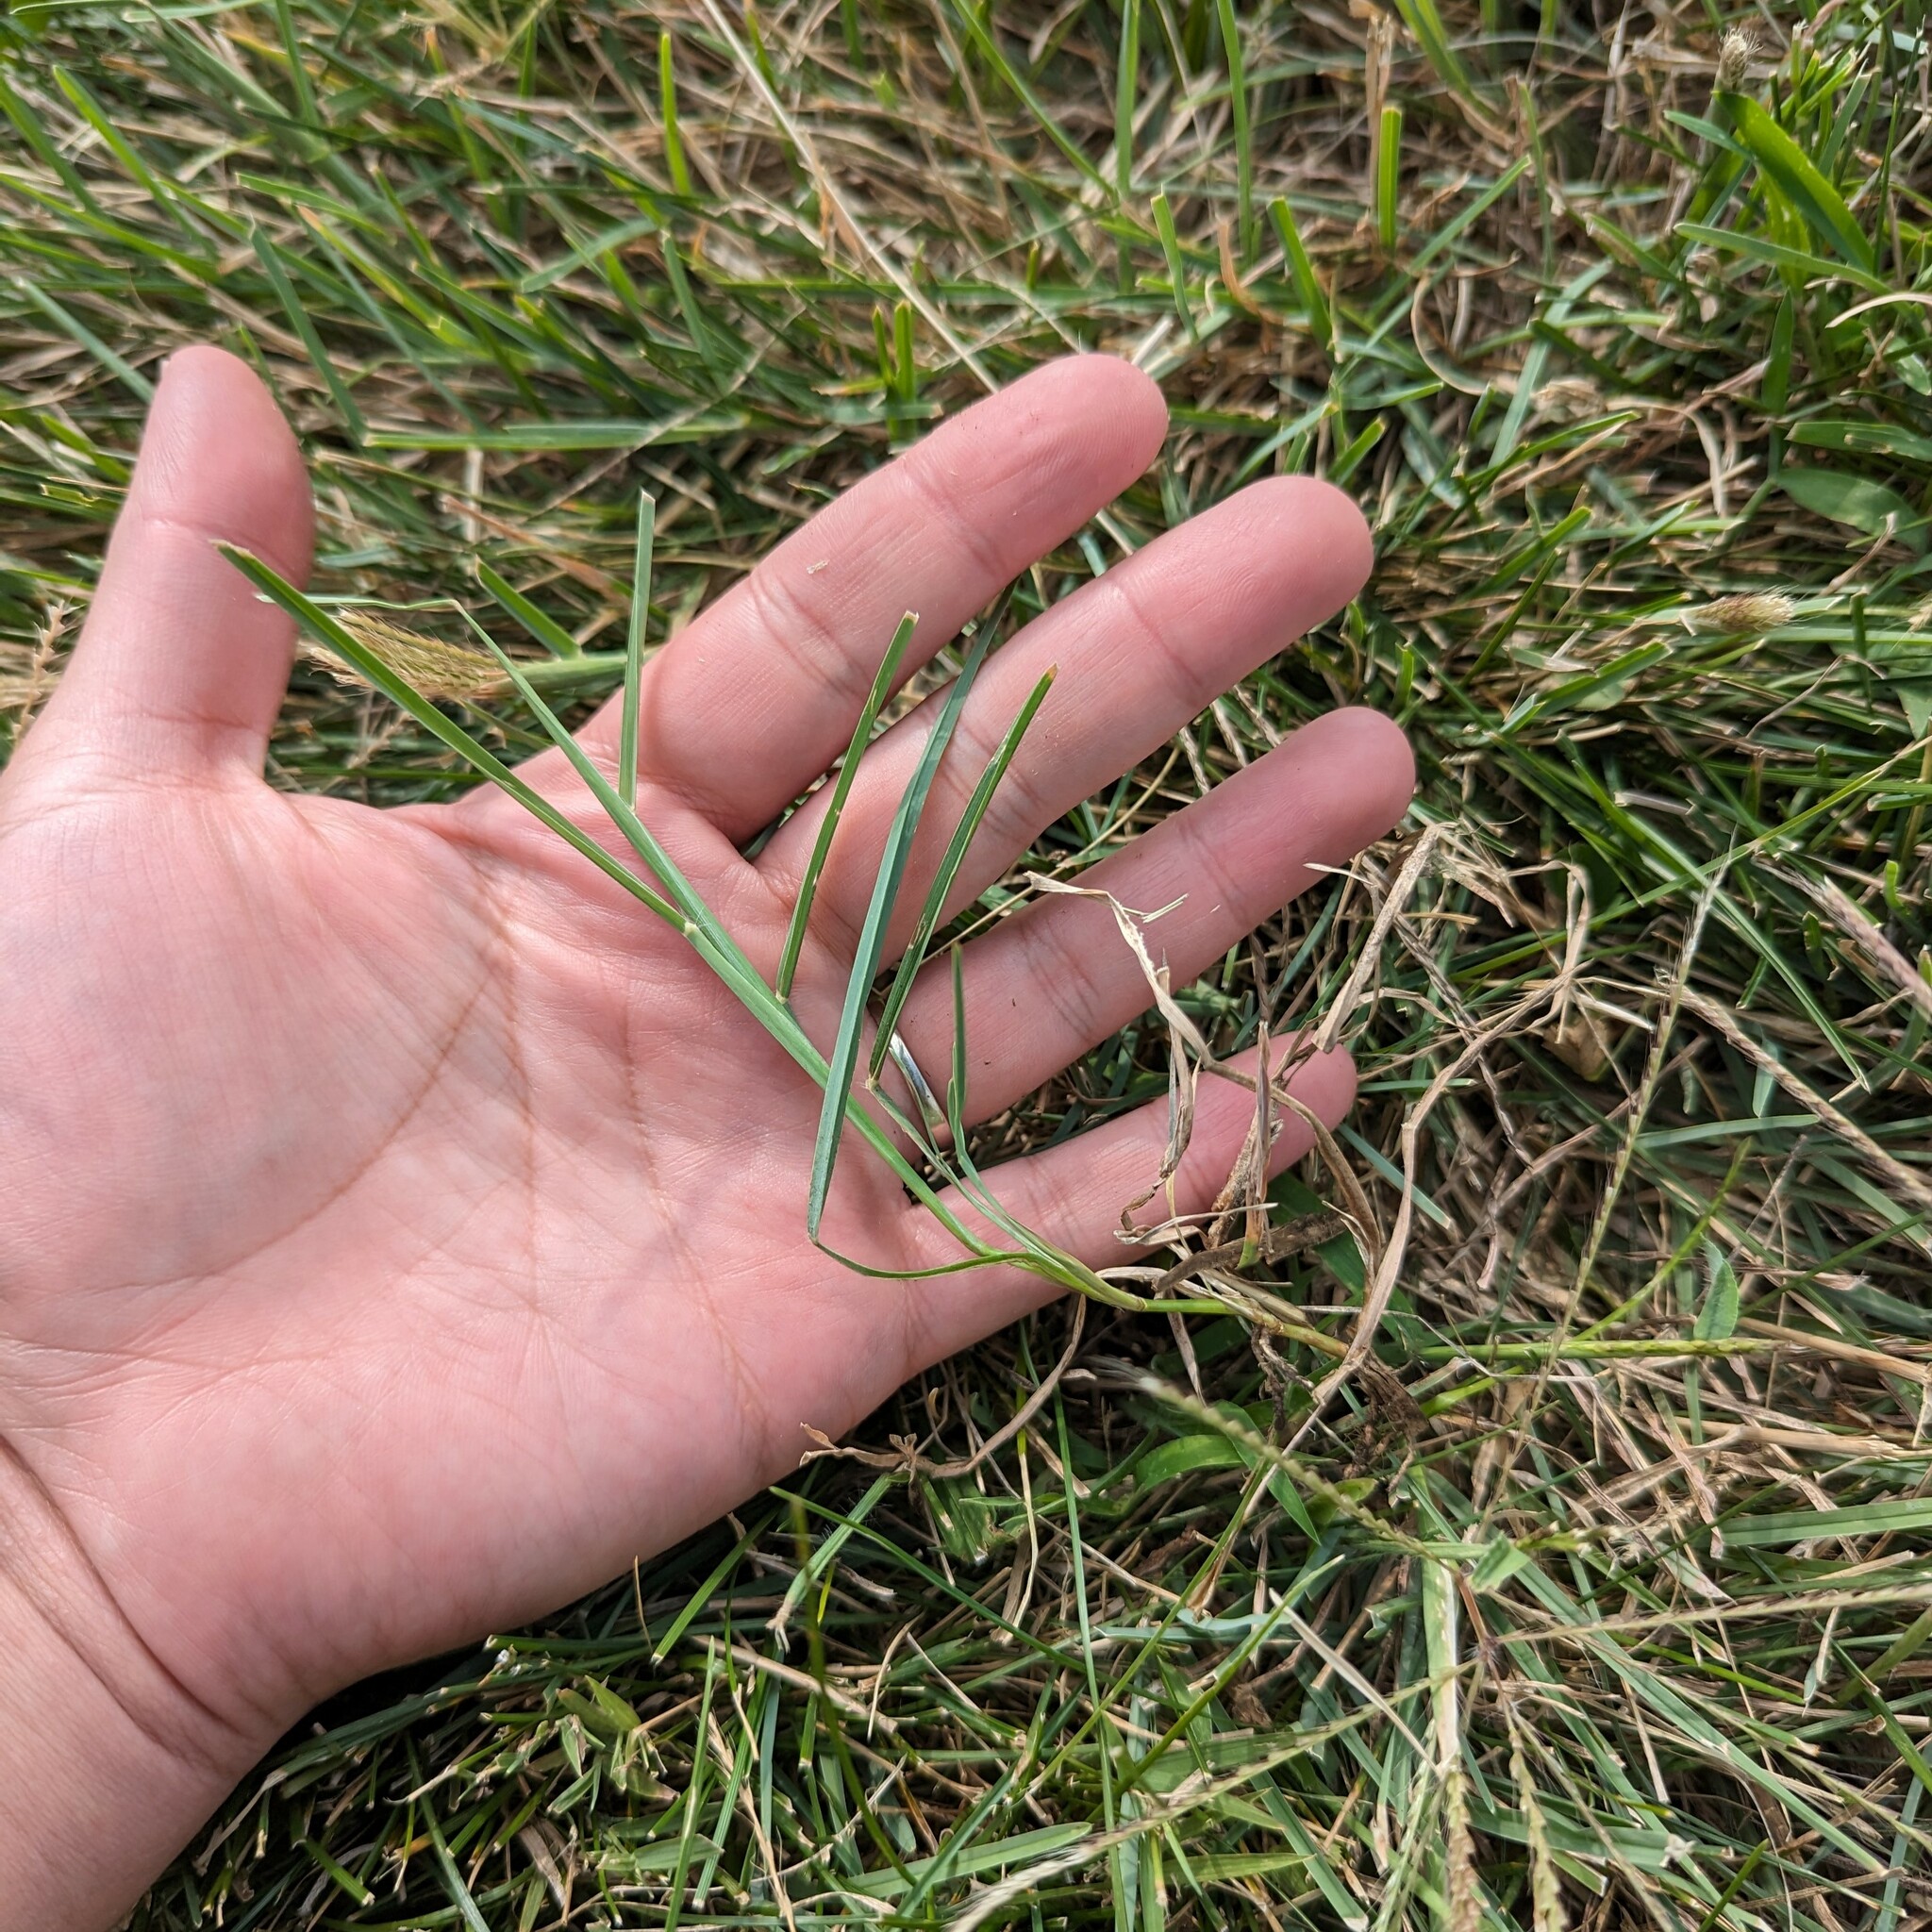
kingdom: Plantae
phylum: Tracheophyta
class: Liliopsida
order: Poales
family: Poaceae
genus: Chloris
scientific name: Chloris verticillata
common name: Tumble windmill grass
